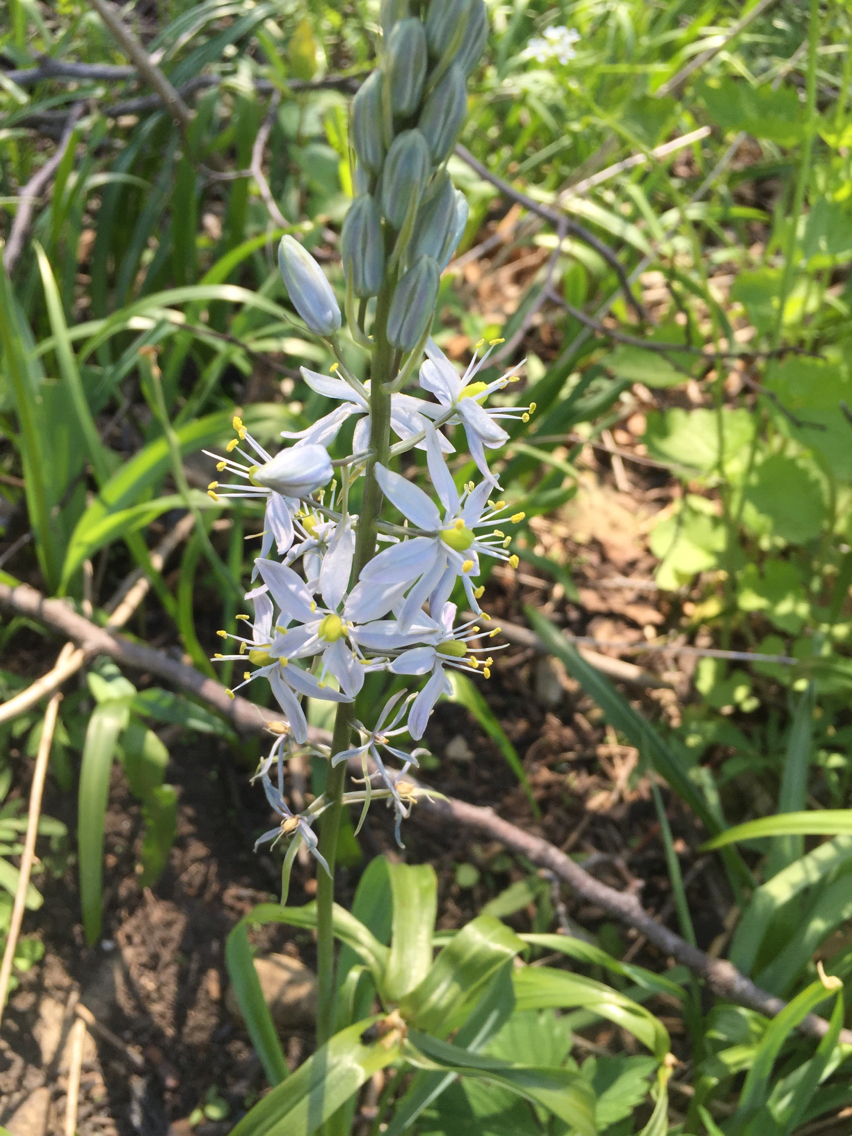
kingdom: Plantae
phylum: Tracheophyta
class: Liliopsida
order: Asparagales
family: Asparagaceae
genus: Camassia
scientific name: Camassia scilloides
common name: Wild hyacinth
